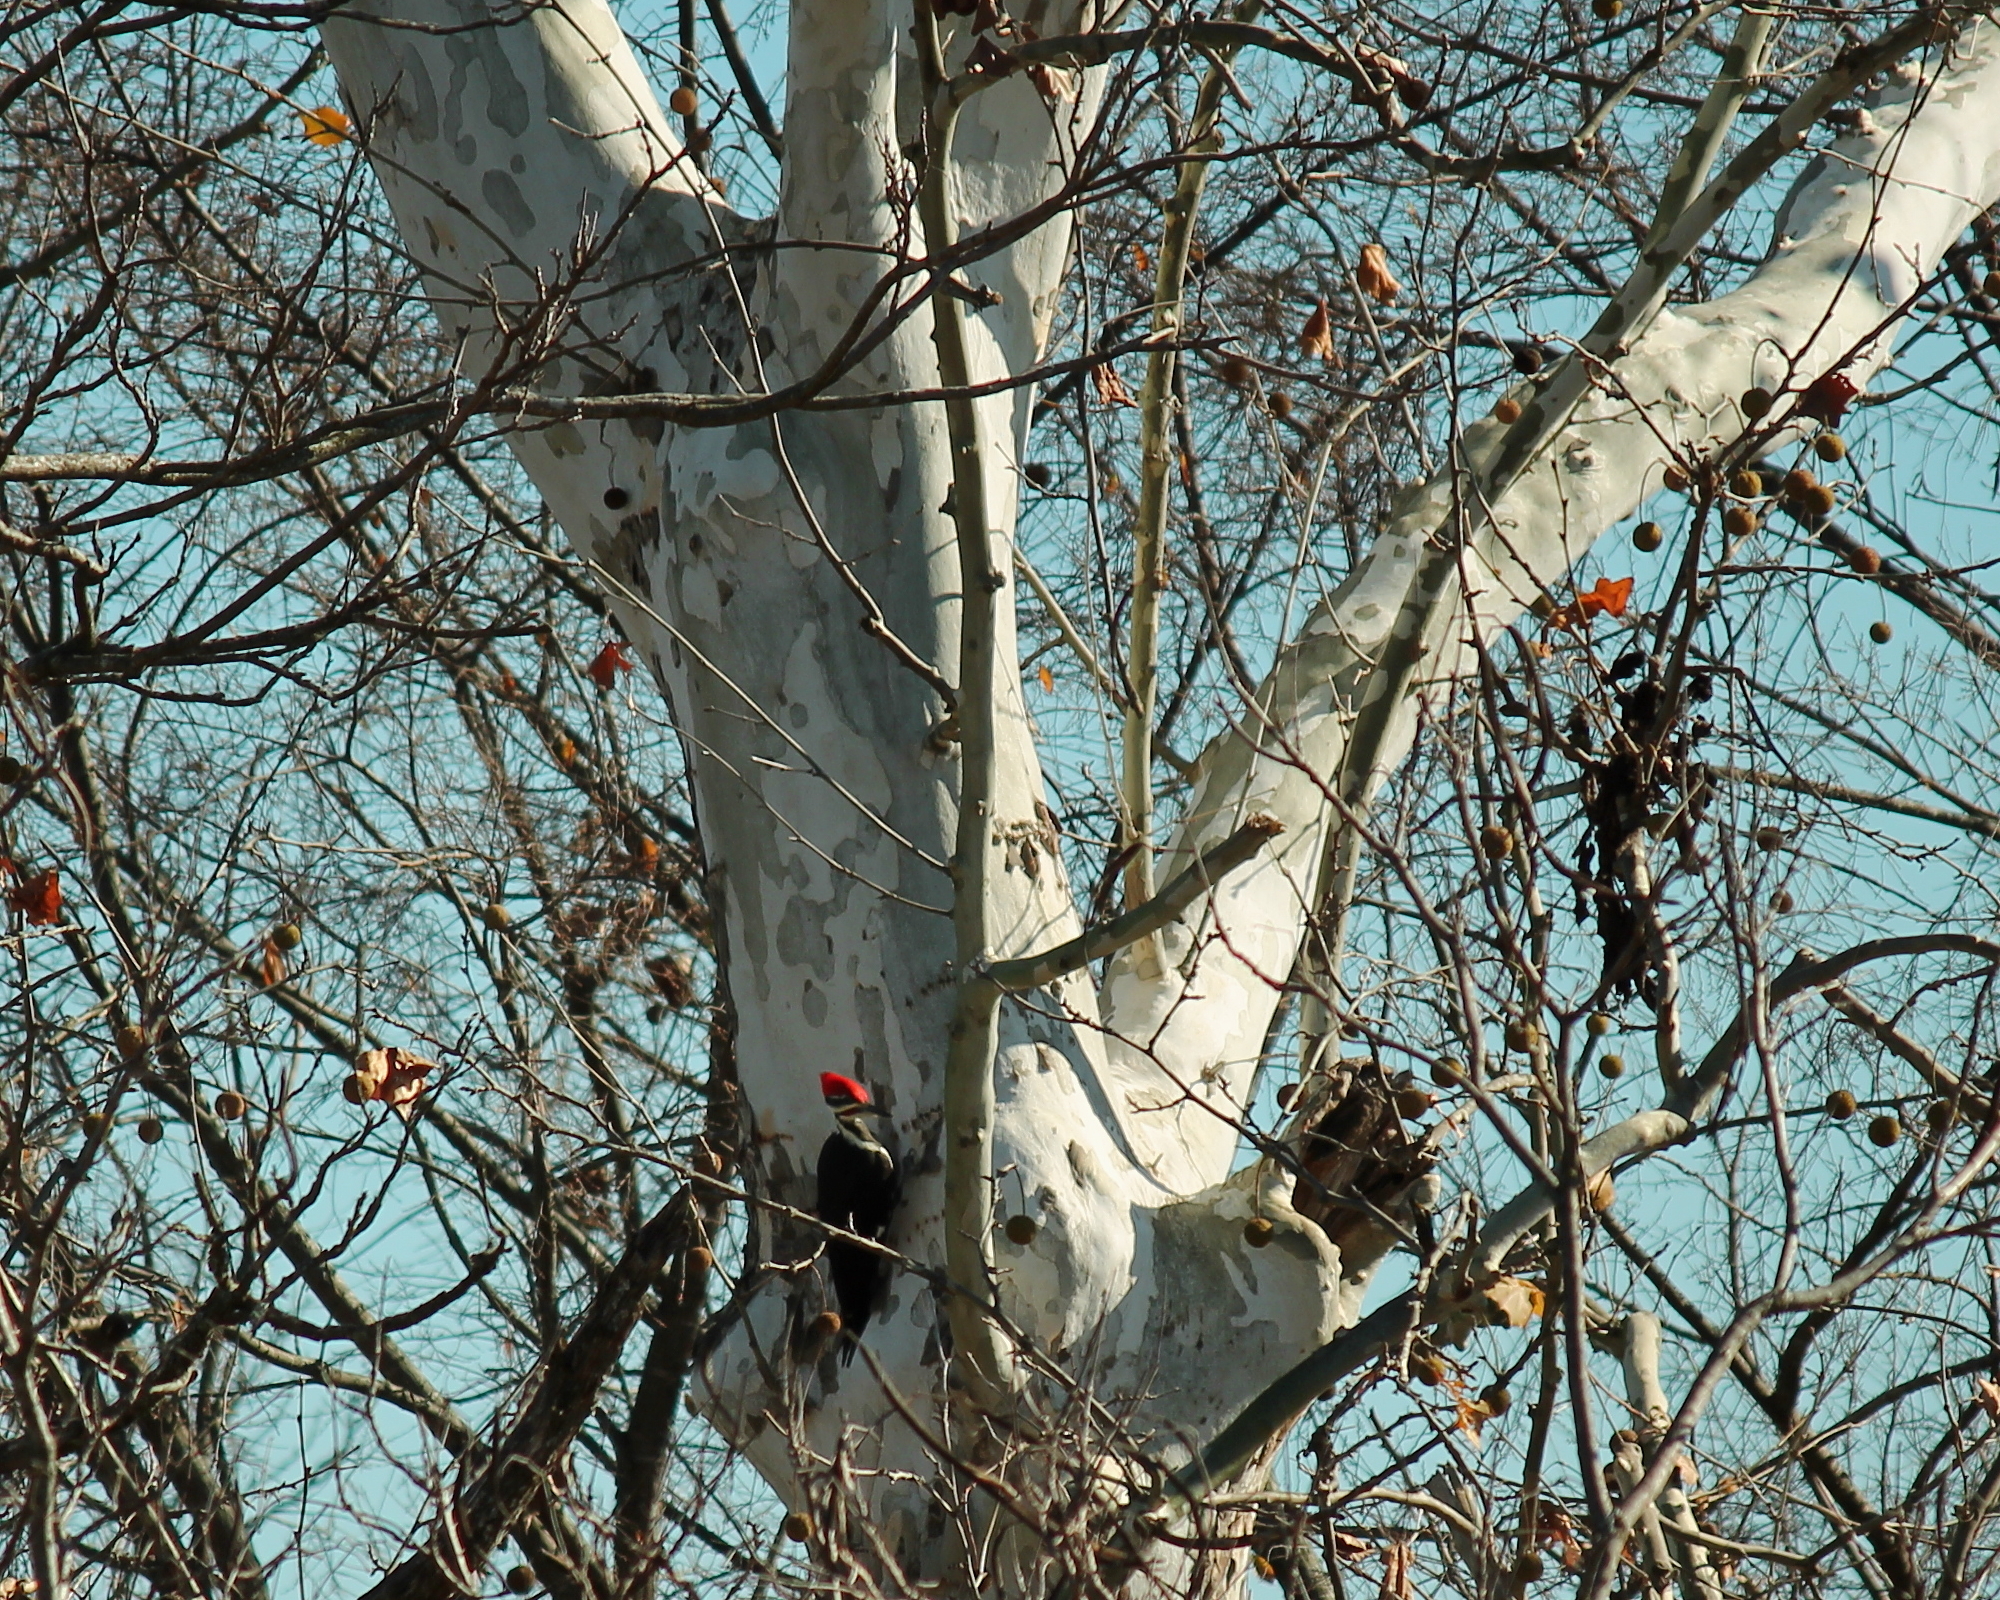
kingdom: Animalia
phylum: Chordata
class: Aves
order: Piciformes
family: Picidae
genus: Dryocopus
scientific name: Dryocopus pileatus
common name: Pileated woodpecker
